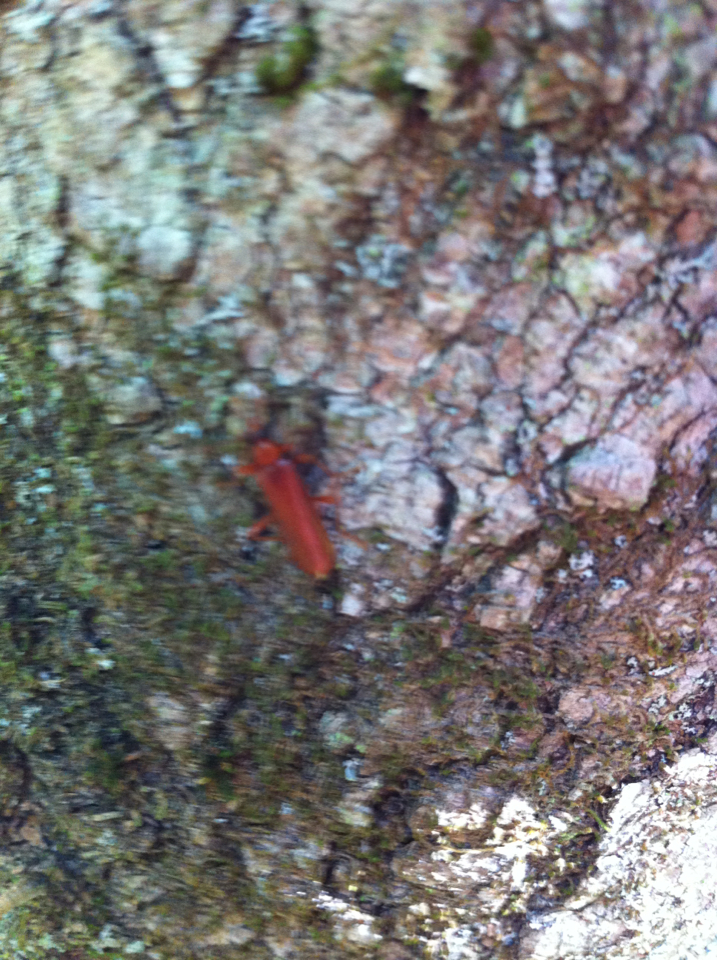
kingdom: Animalia
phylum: Arthropoda
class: Insecta
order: Coleoptera
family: Pyrochroidae
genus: Dendroides
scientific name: Dendroides concolor
